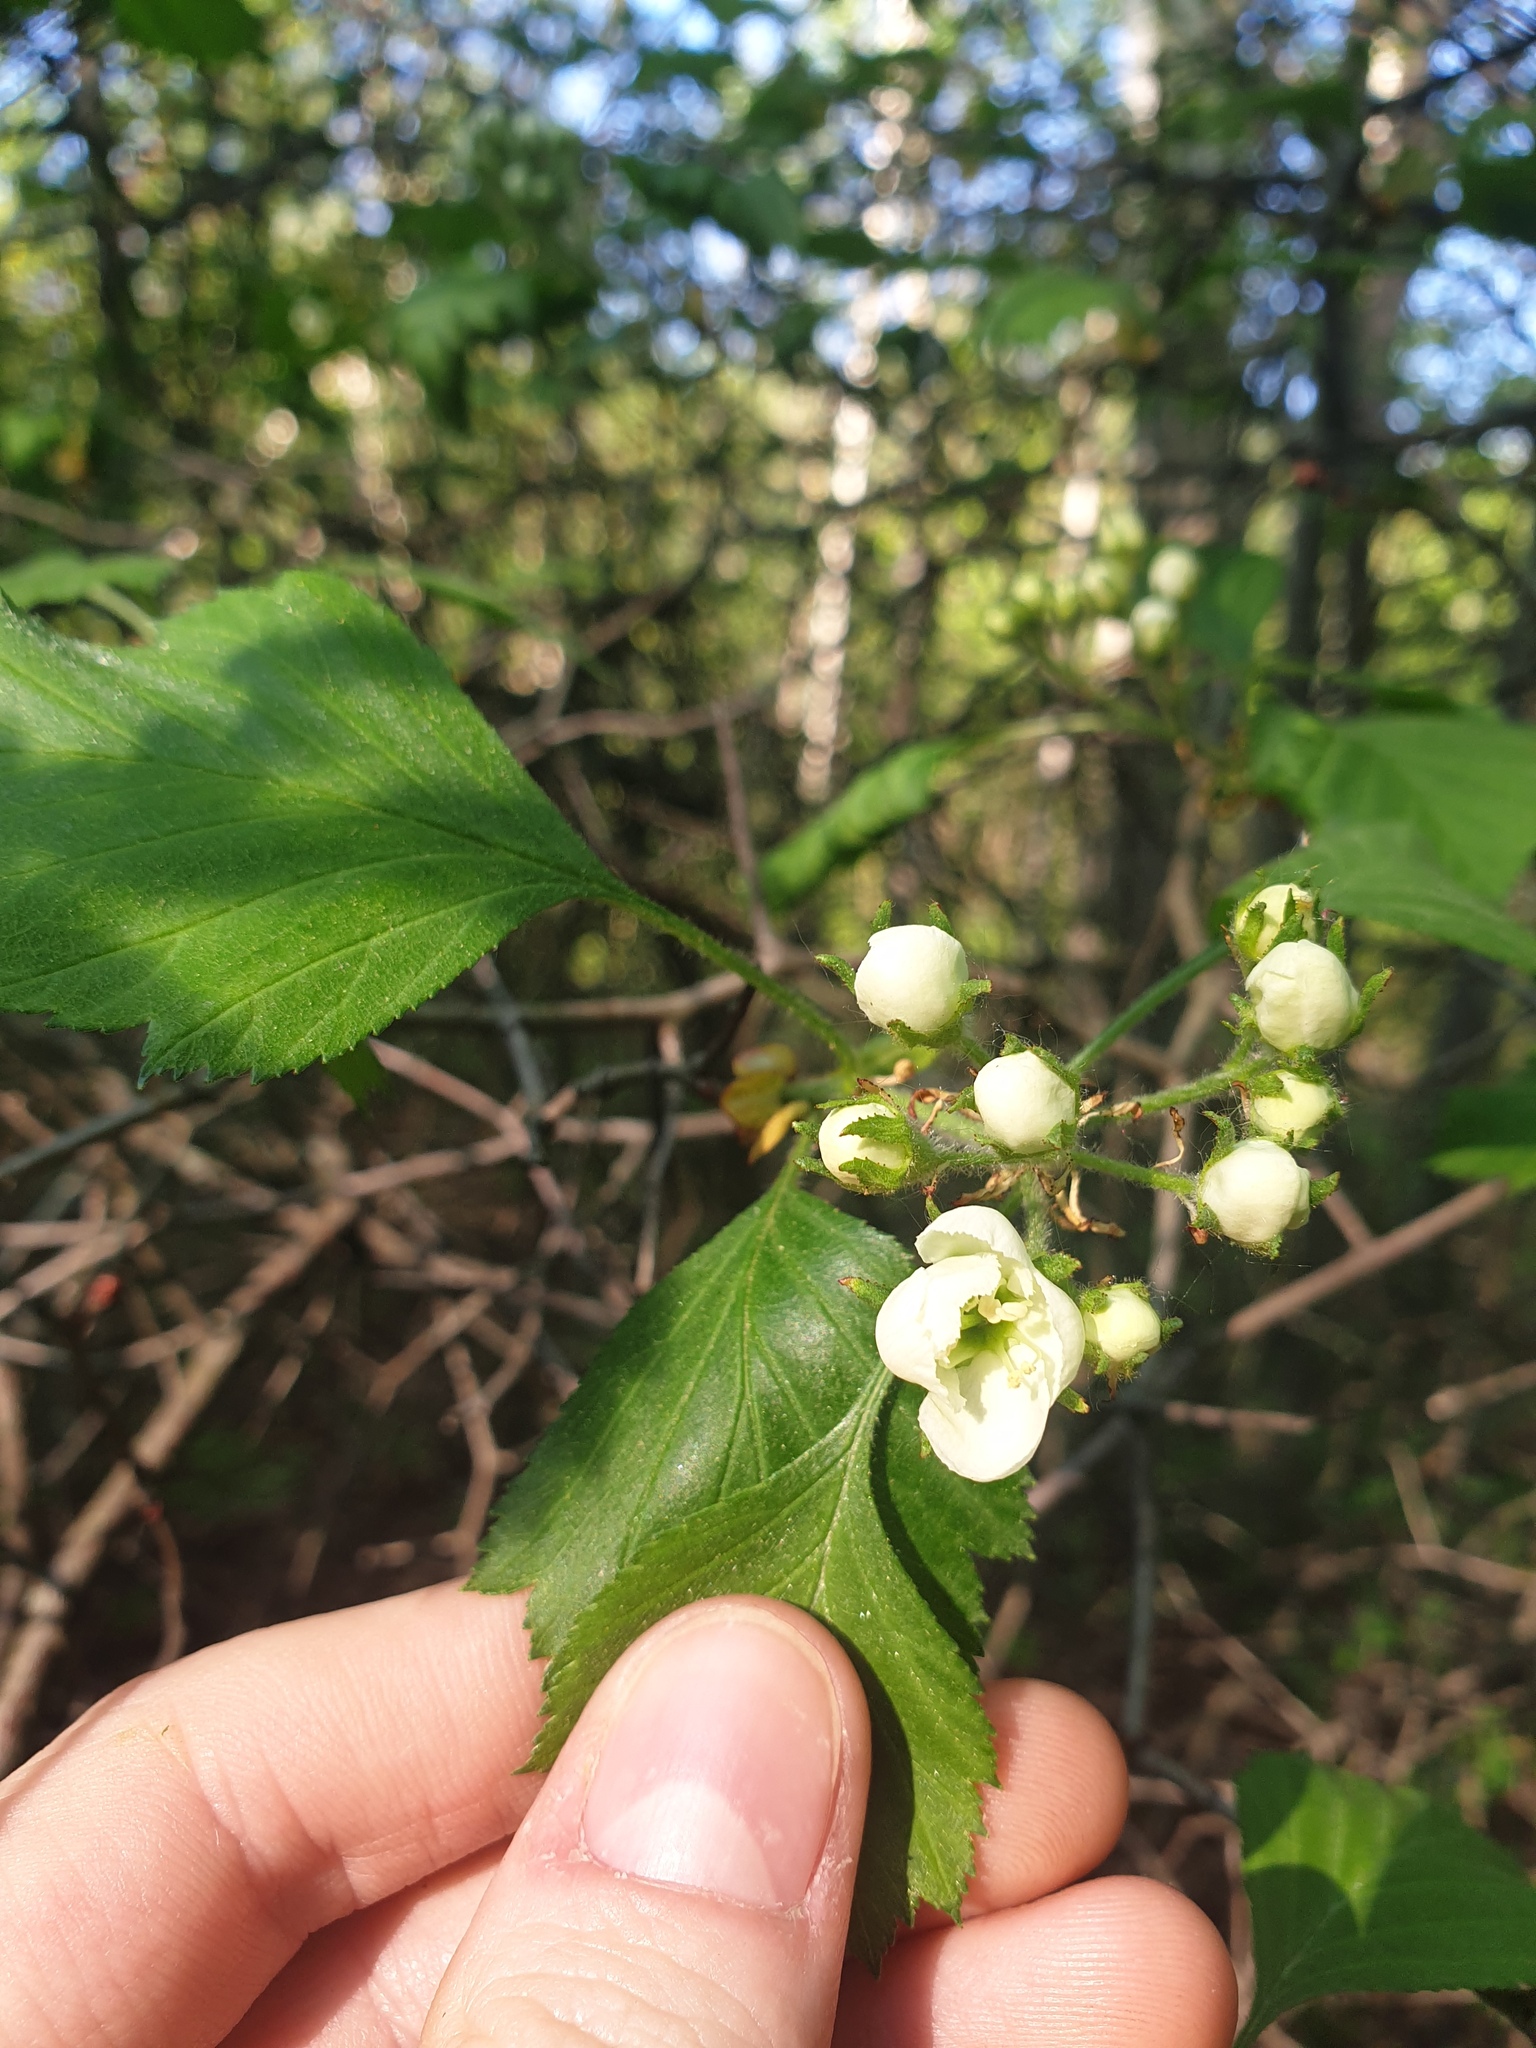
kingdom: Plantae
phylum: Tracheophyta
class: Magnoliopsida
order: Rosales
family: Rosaceae
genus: Crataegus
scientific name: Crataegus chrysocarpa
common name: Fire-berry hawthorn
